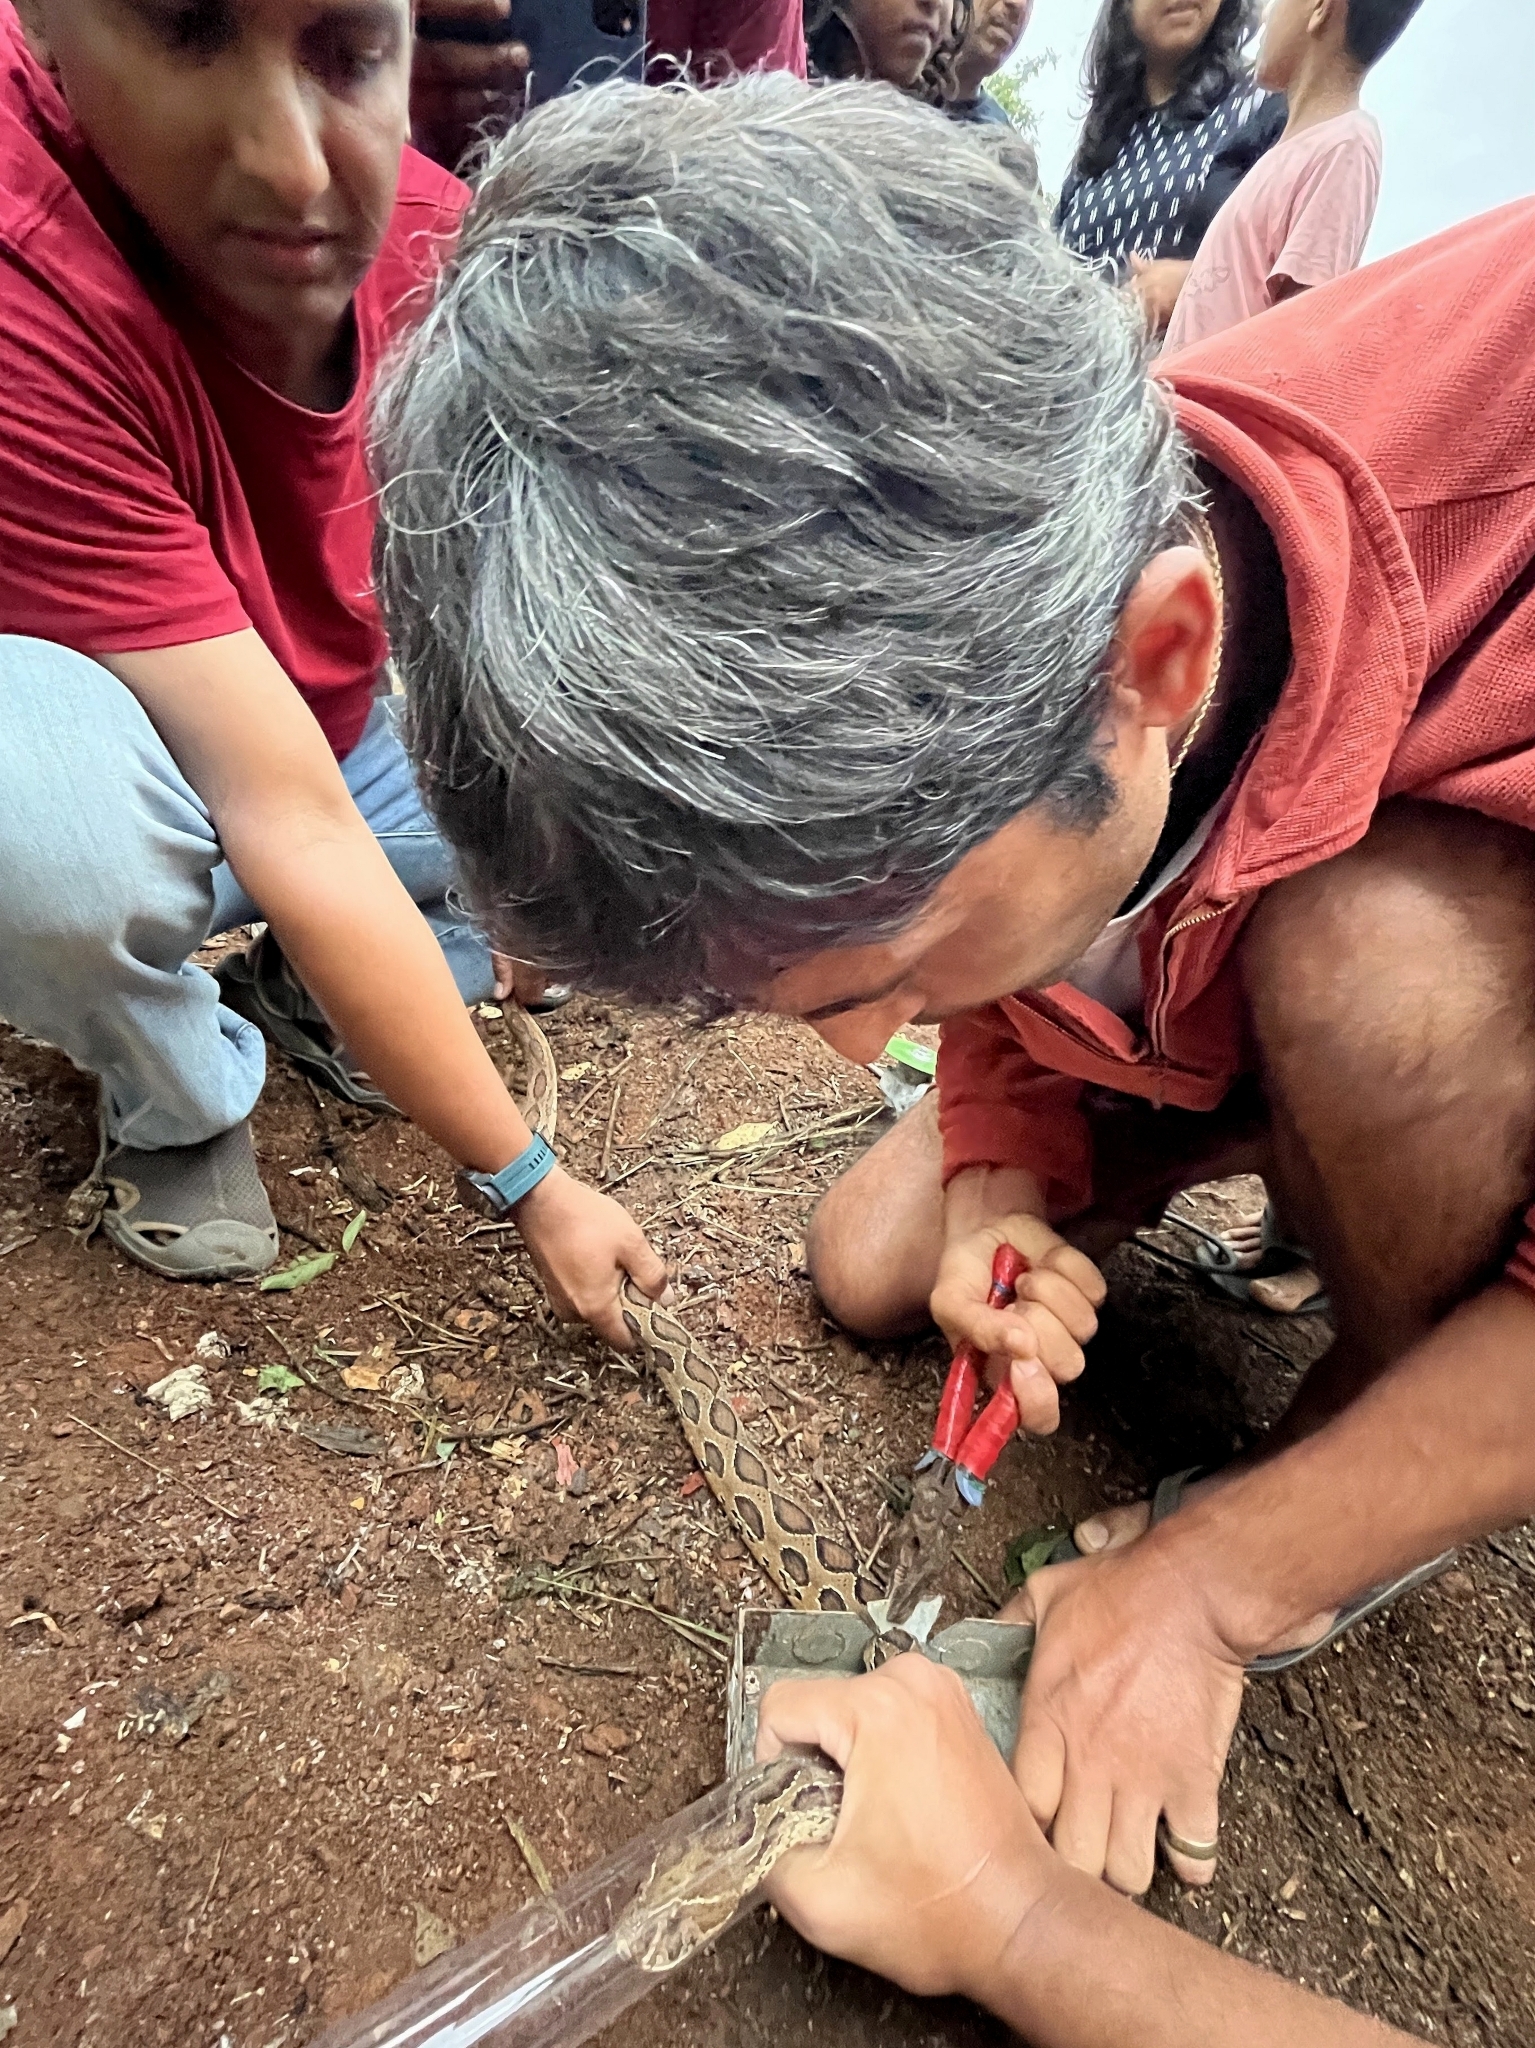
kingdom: Animalia
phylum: Chordata
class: Squamata
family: Viperidae
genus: Daboia
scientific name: Daboia russelii
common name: Western russel’s viper
